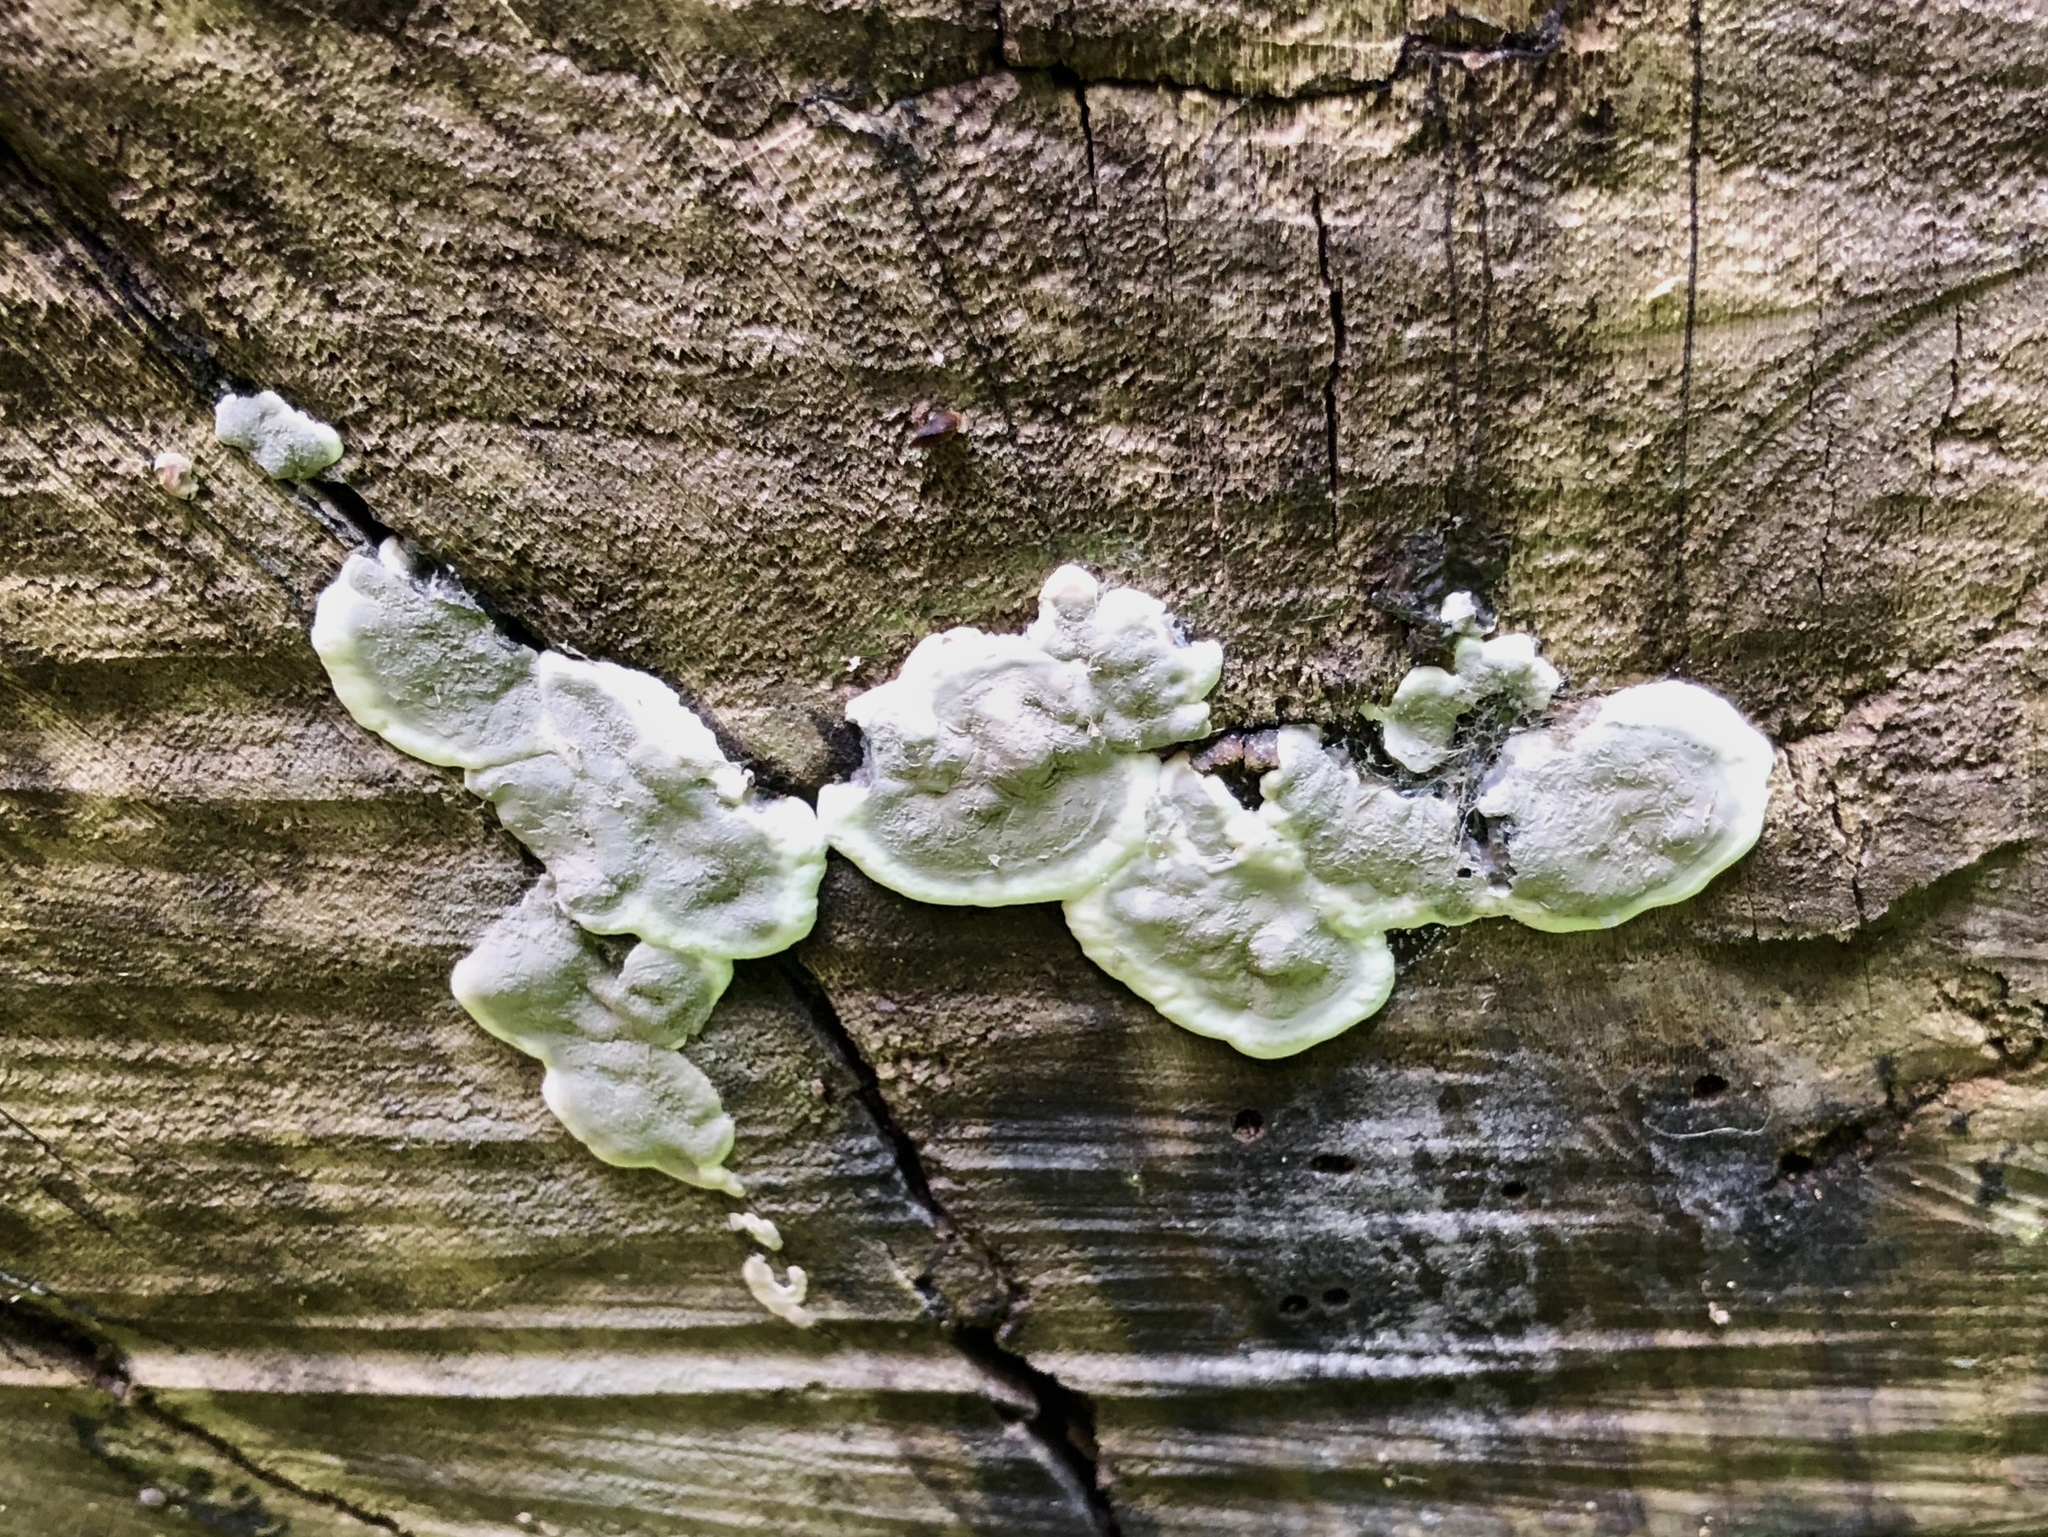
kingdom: Fungi
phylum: Ascomycota
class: Sordariomycetes
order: Xylariales
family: Xylariaceae
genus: Kretzschmaria
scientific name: Kretzschmaria deusta
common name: Brittle cinder
